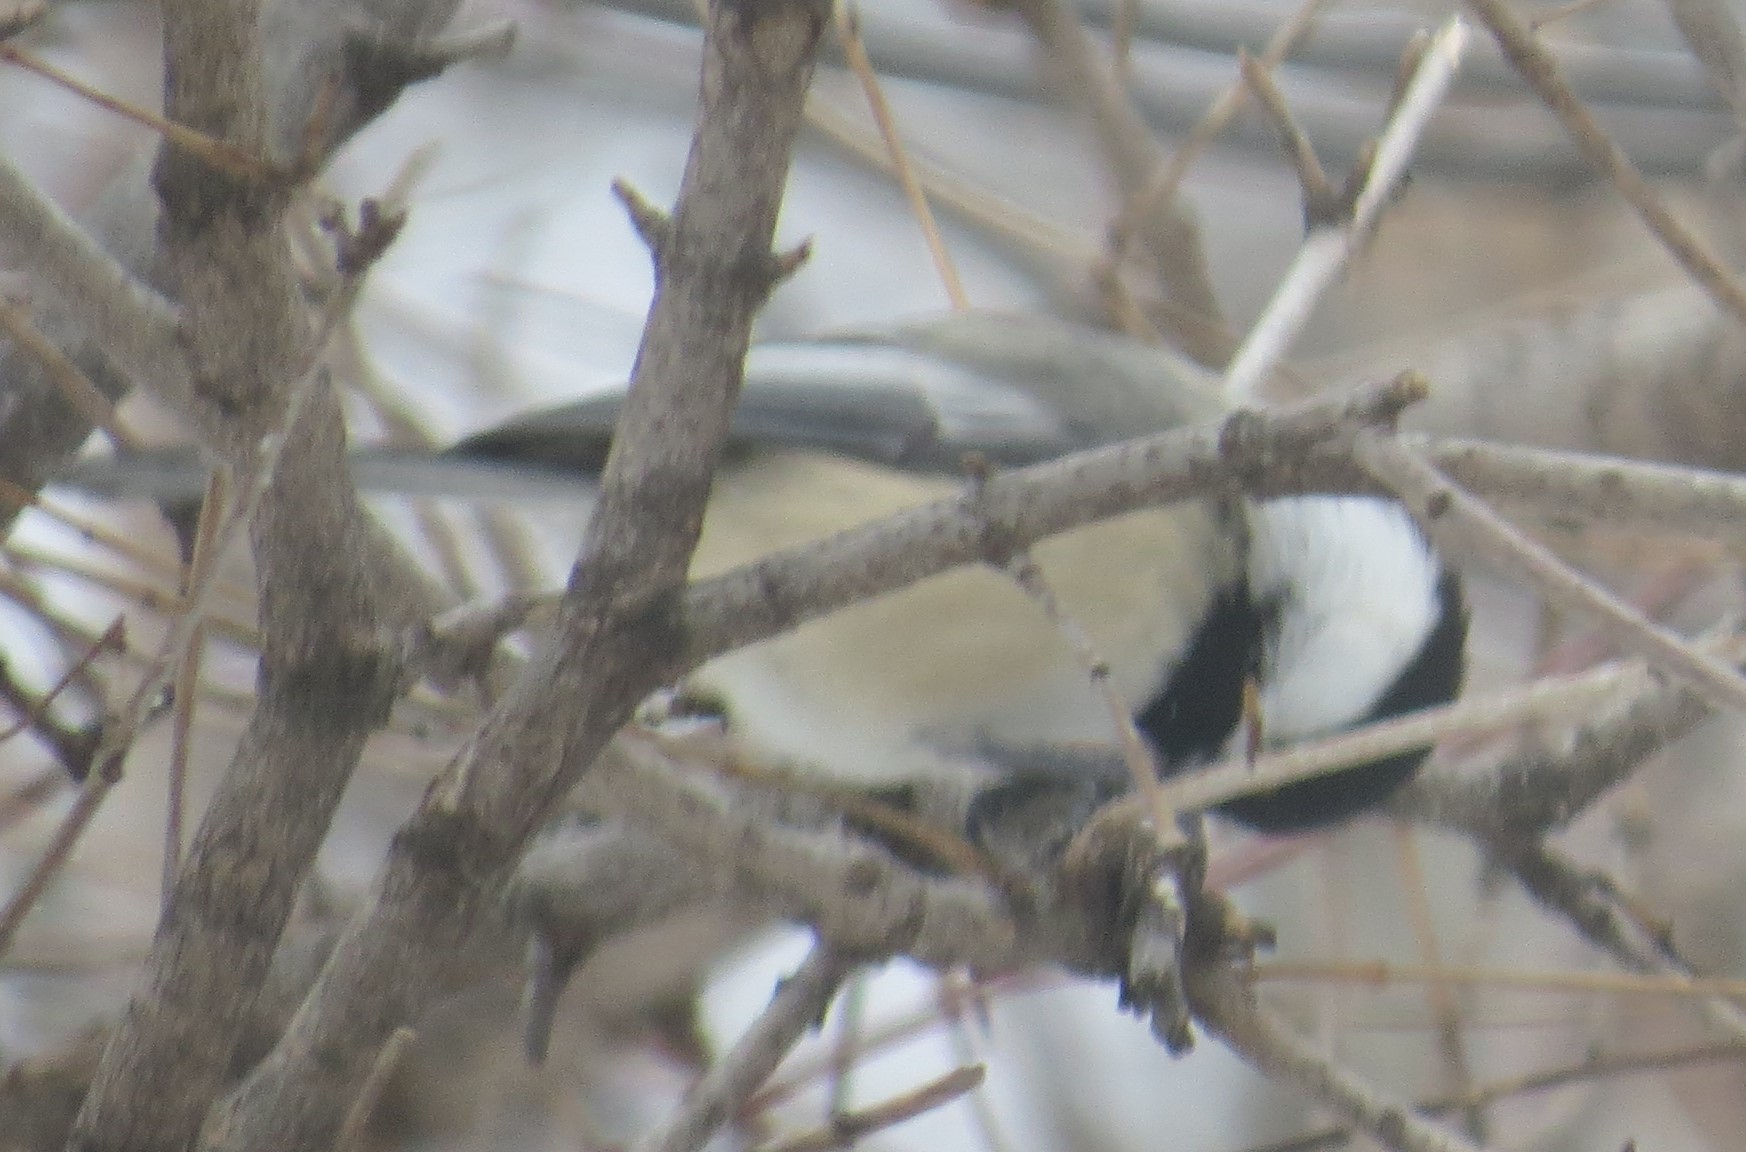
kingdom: Animalia
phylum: Chordata
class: Aves
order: Passeriformes
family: Paridae
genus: Poecile
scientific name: Poecile atricapillus
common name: Black-capped chickadee
